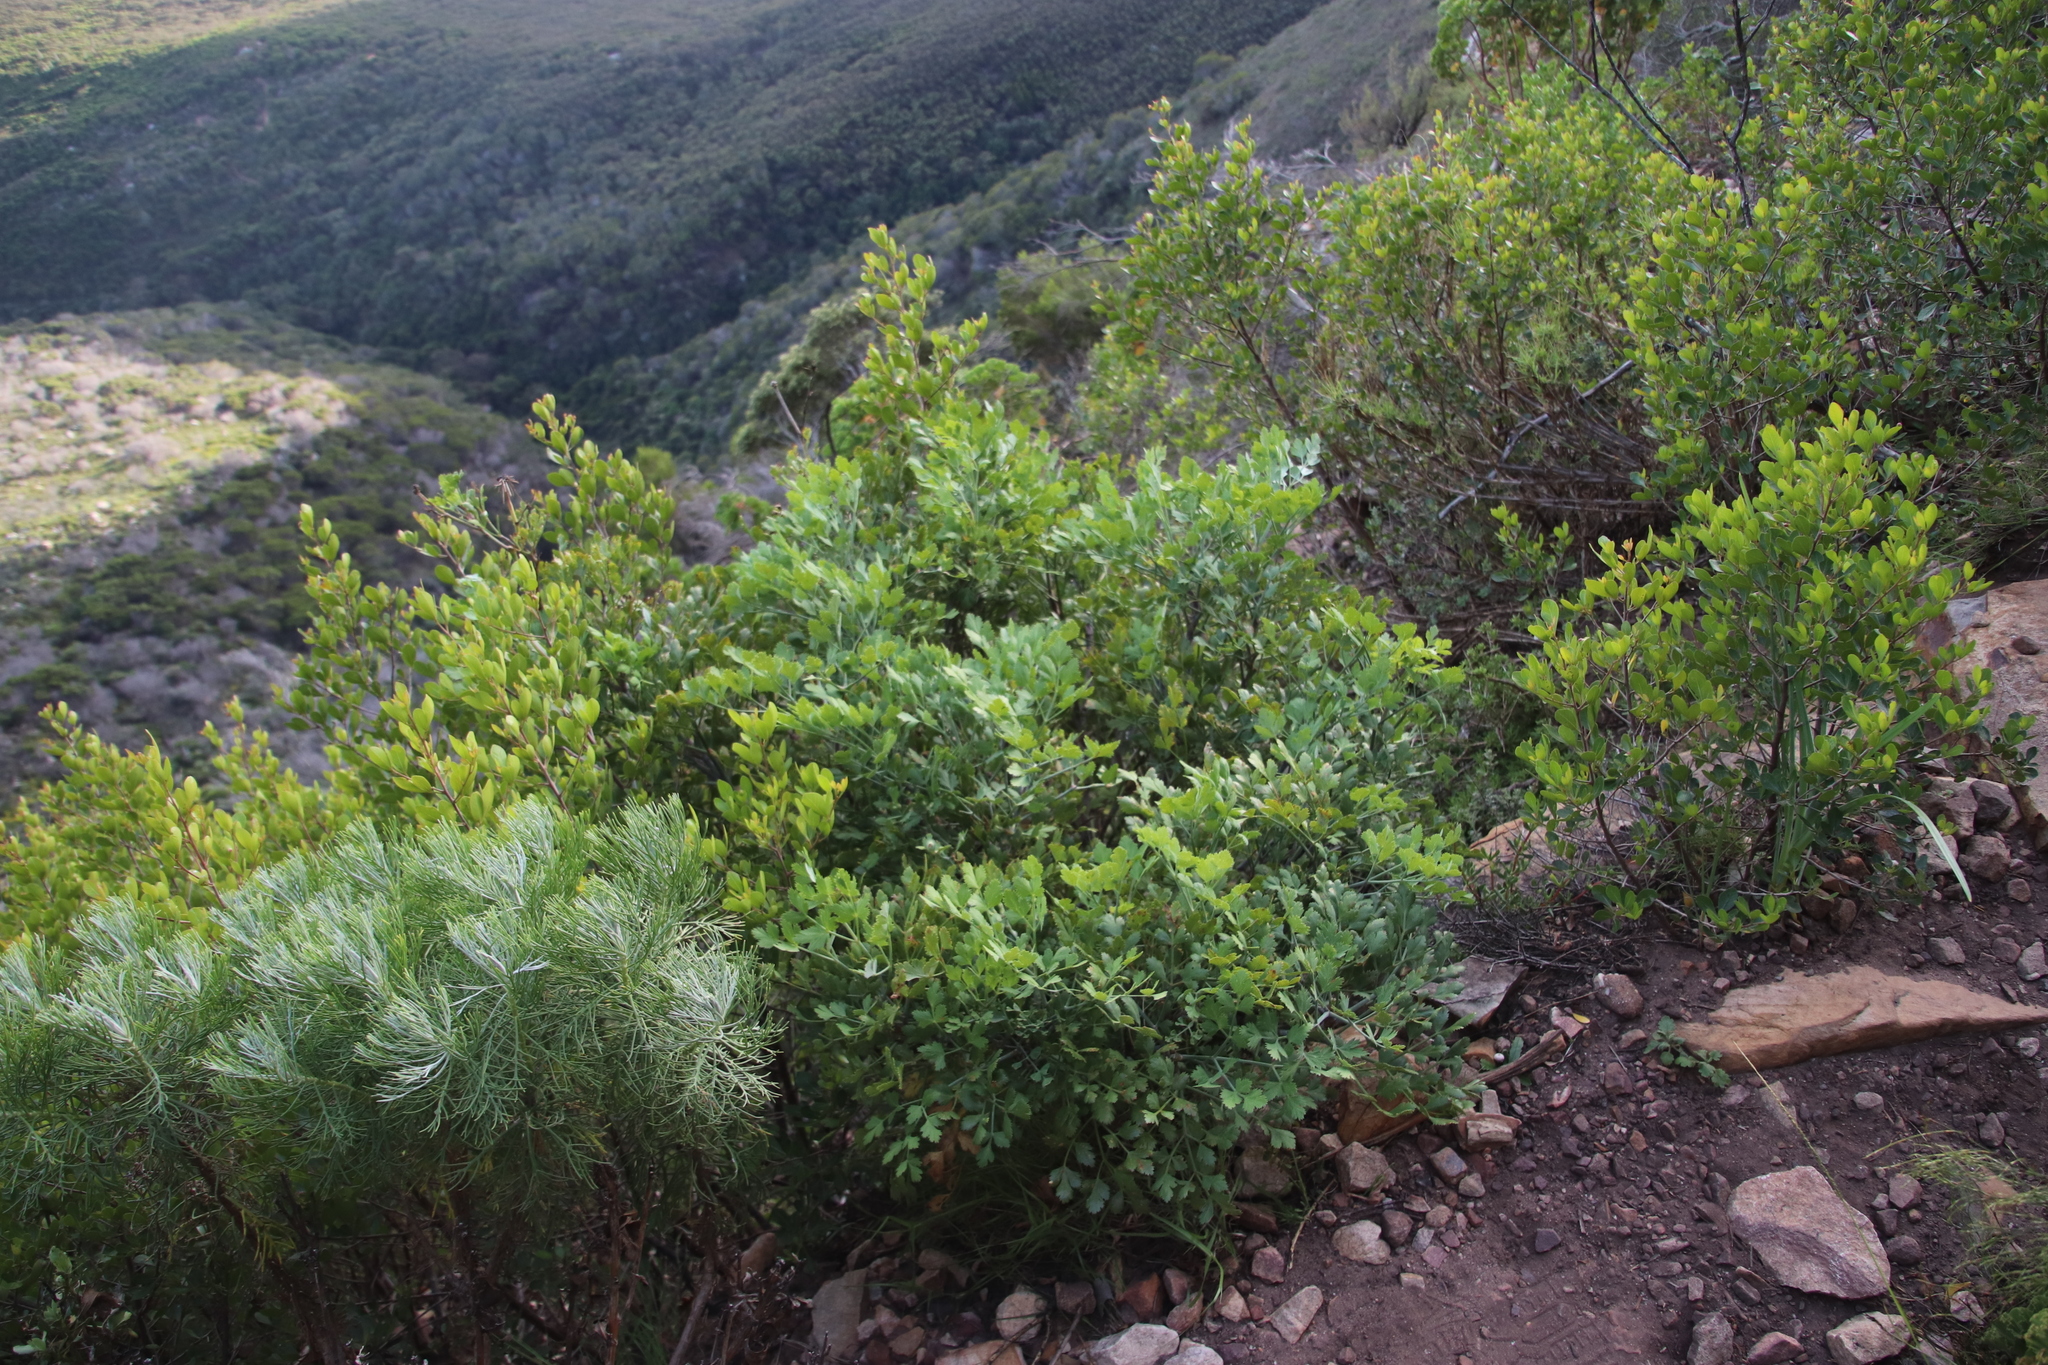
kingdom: Plantae
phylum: Tracheophyta
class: Magnoliopsida
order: Apiales
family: Apiaceae
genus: Notobubon
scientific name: Notobubon galbanum
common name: Blisterbush
